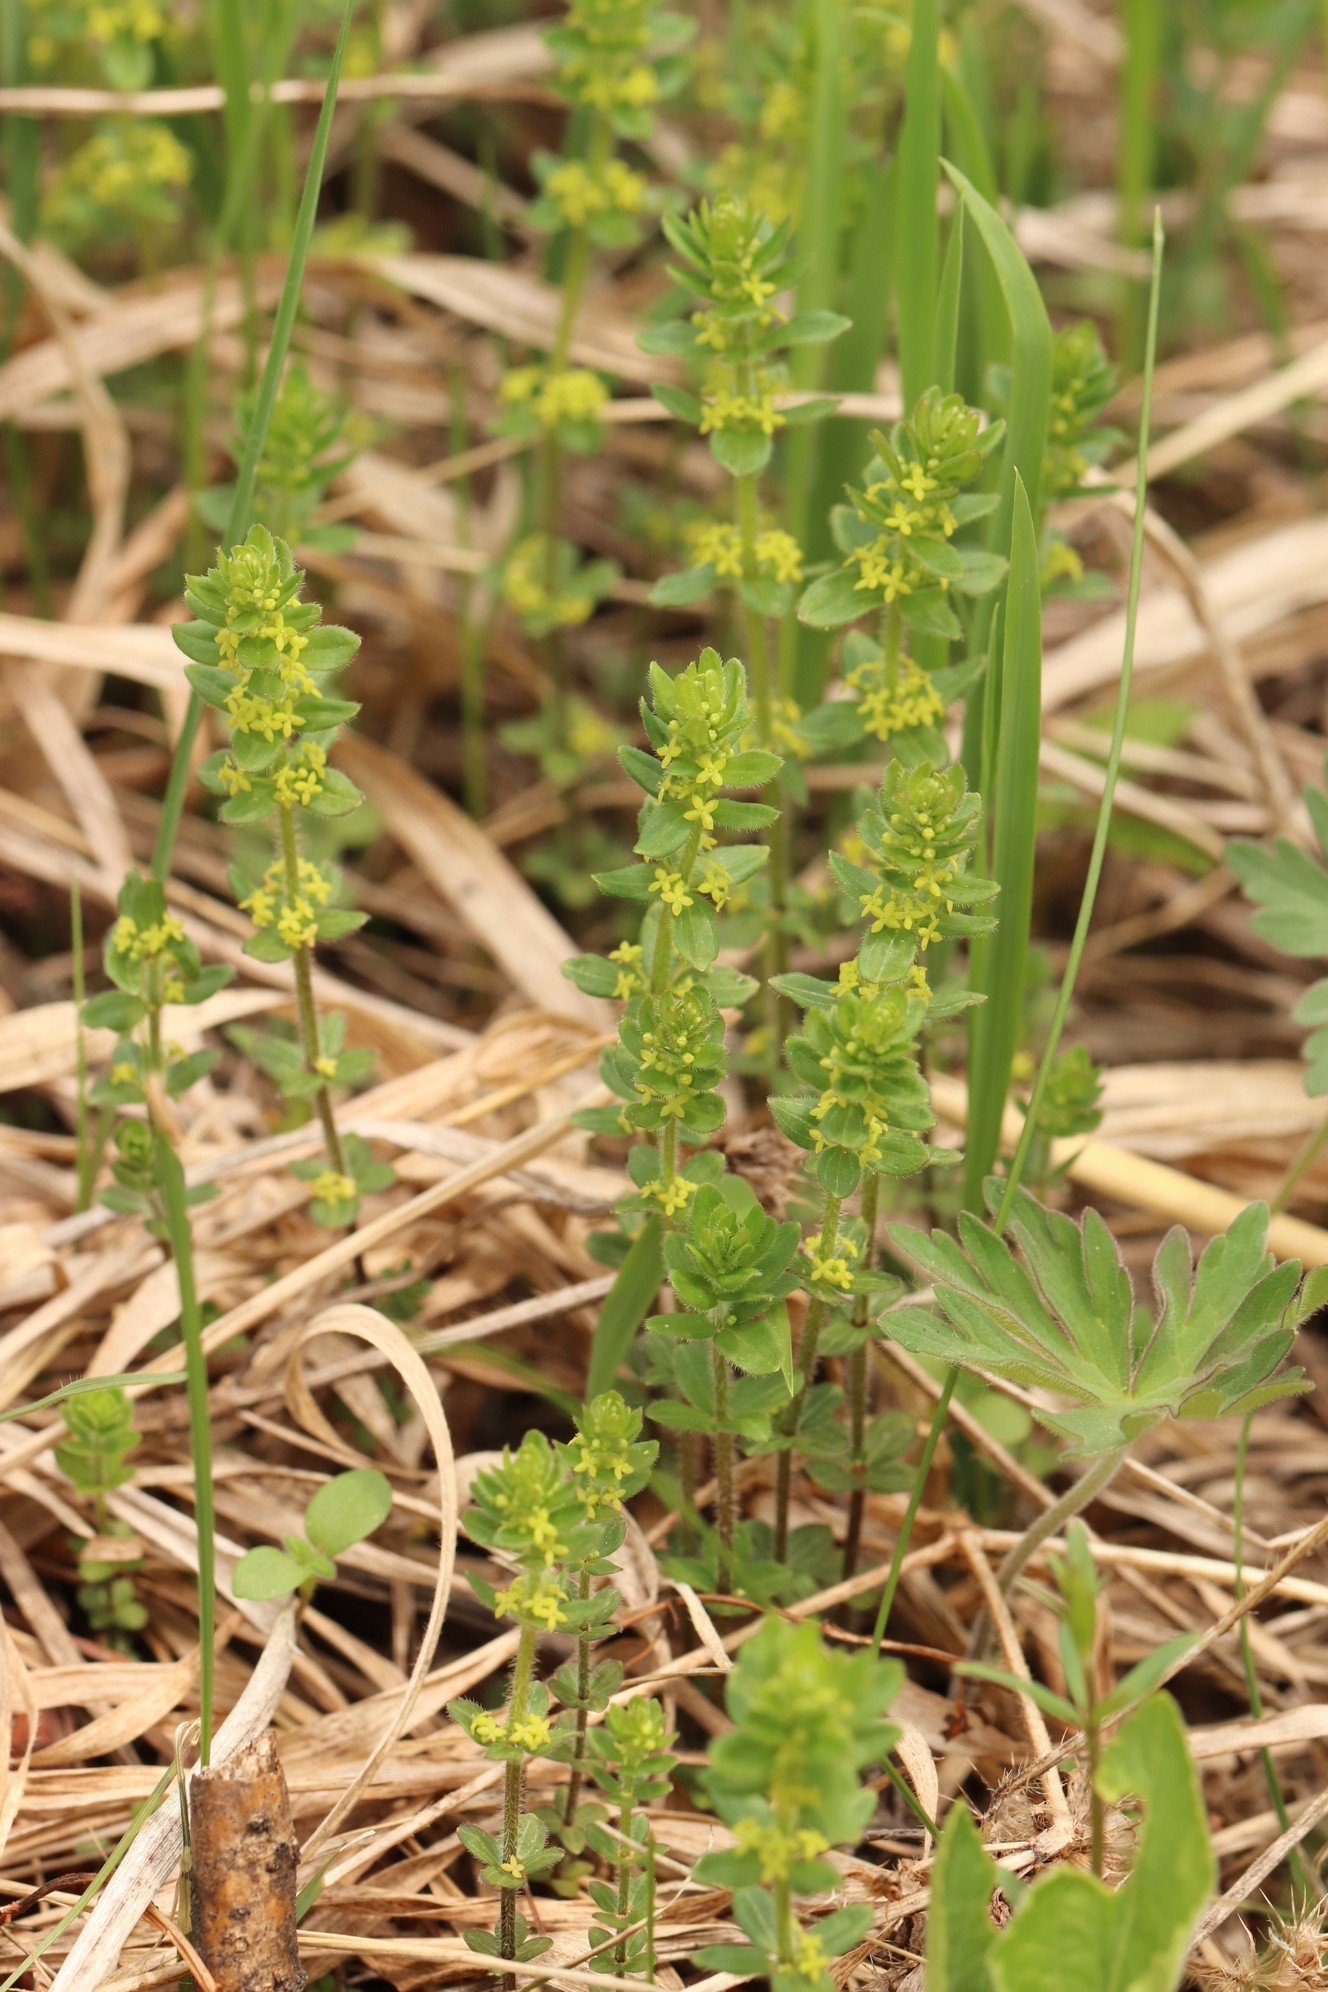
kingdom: Plantae
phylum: Tracheophyta
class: Magnoliopsida
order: Gentianales
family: Rubiaceae
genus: Cruciata
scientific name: Cruciata glabra
